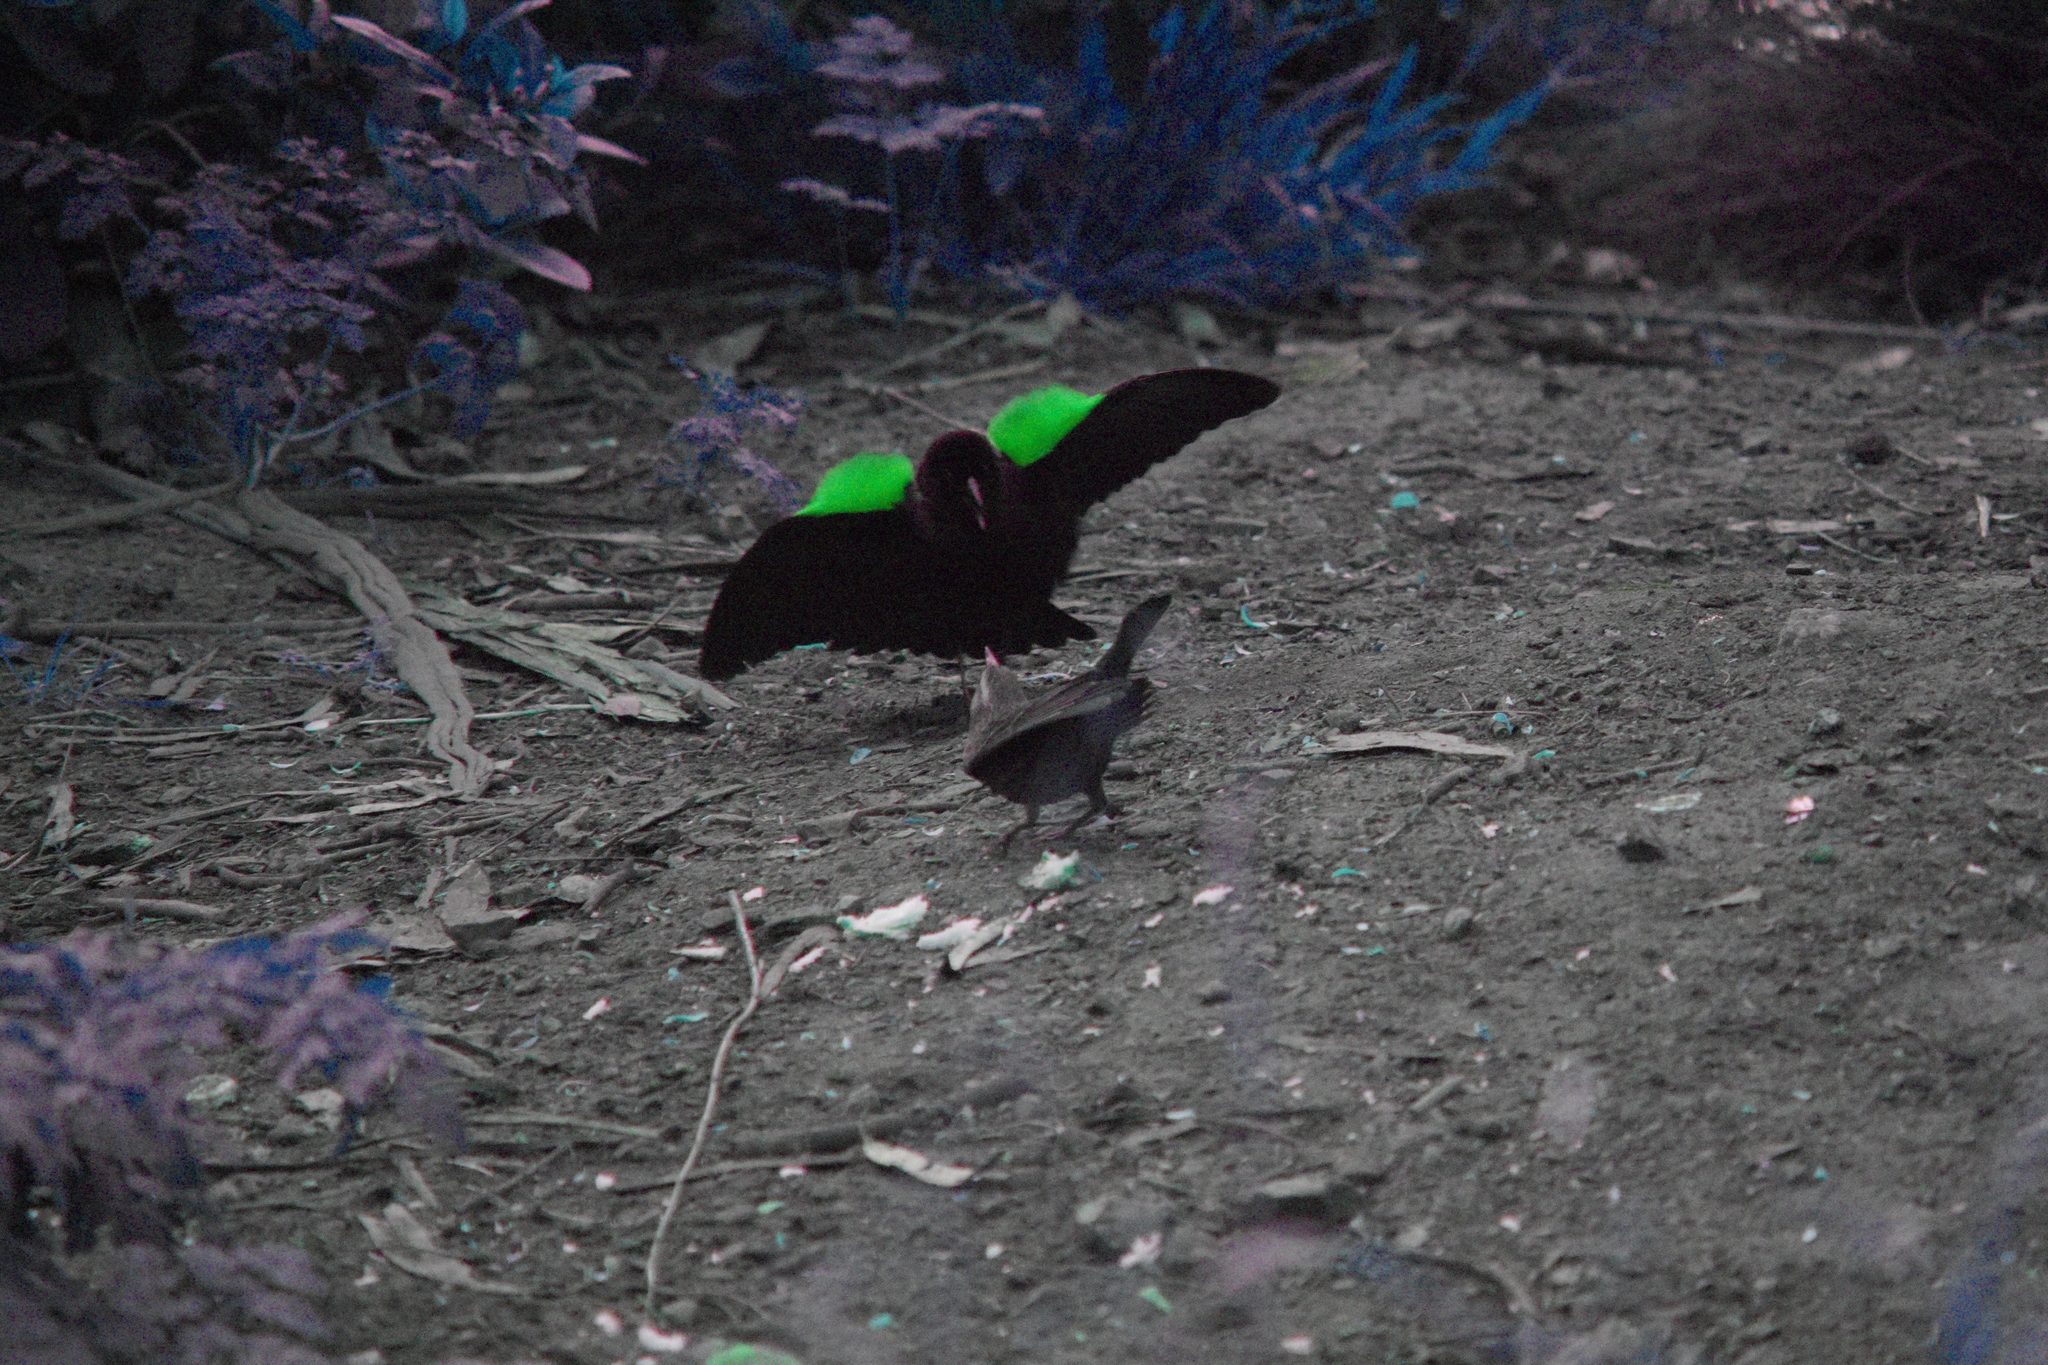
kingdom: Animalia
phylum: Chordata
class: Aves
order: Passeriformes
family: Icteridae
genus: Agelaius
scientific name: Agelaius phoeniceus
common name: Red-winged blackbird
